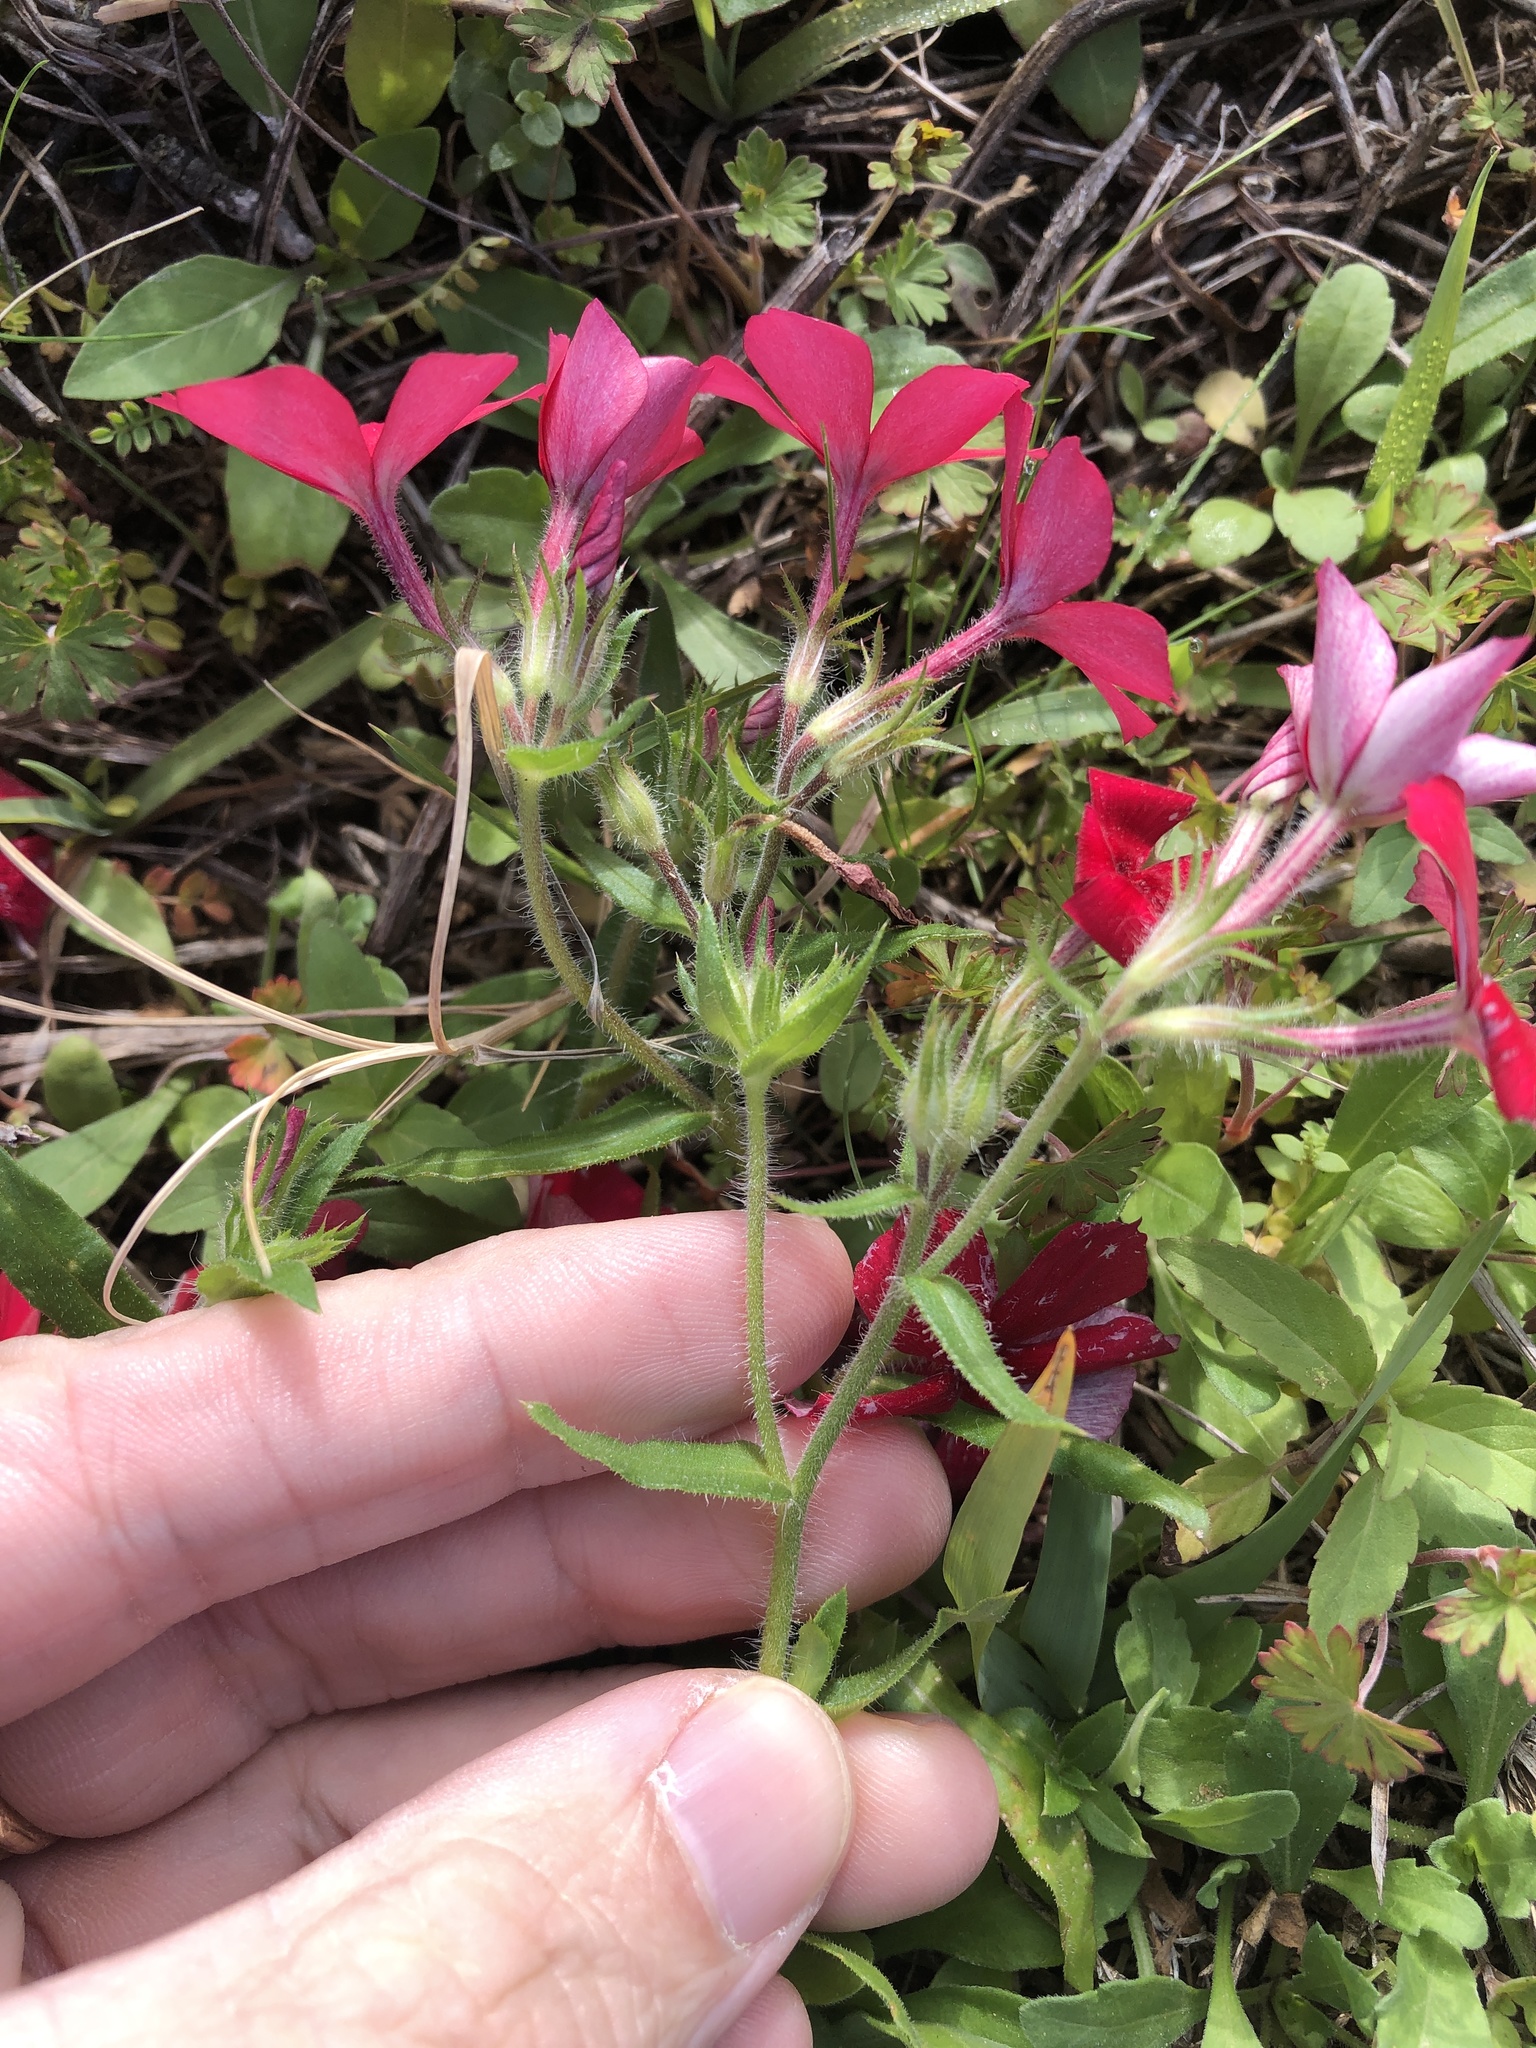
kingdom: Plantae
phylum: Tracheophyta
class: Magnoliopsida
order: Ericales
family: Polemoniaceae
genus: Phlox
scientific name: Phlox drummondii
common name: Drummond's phlox
